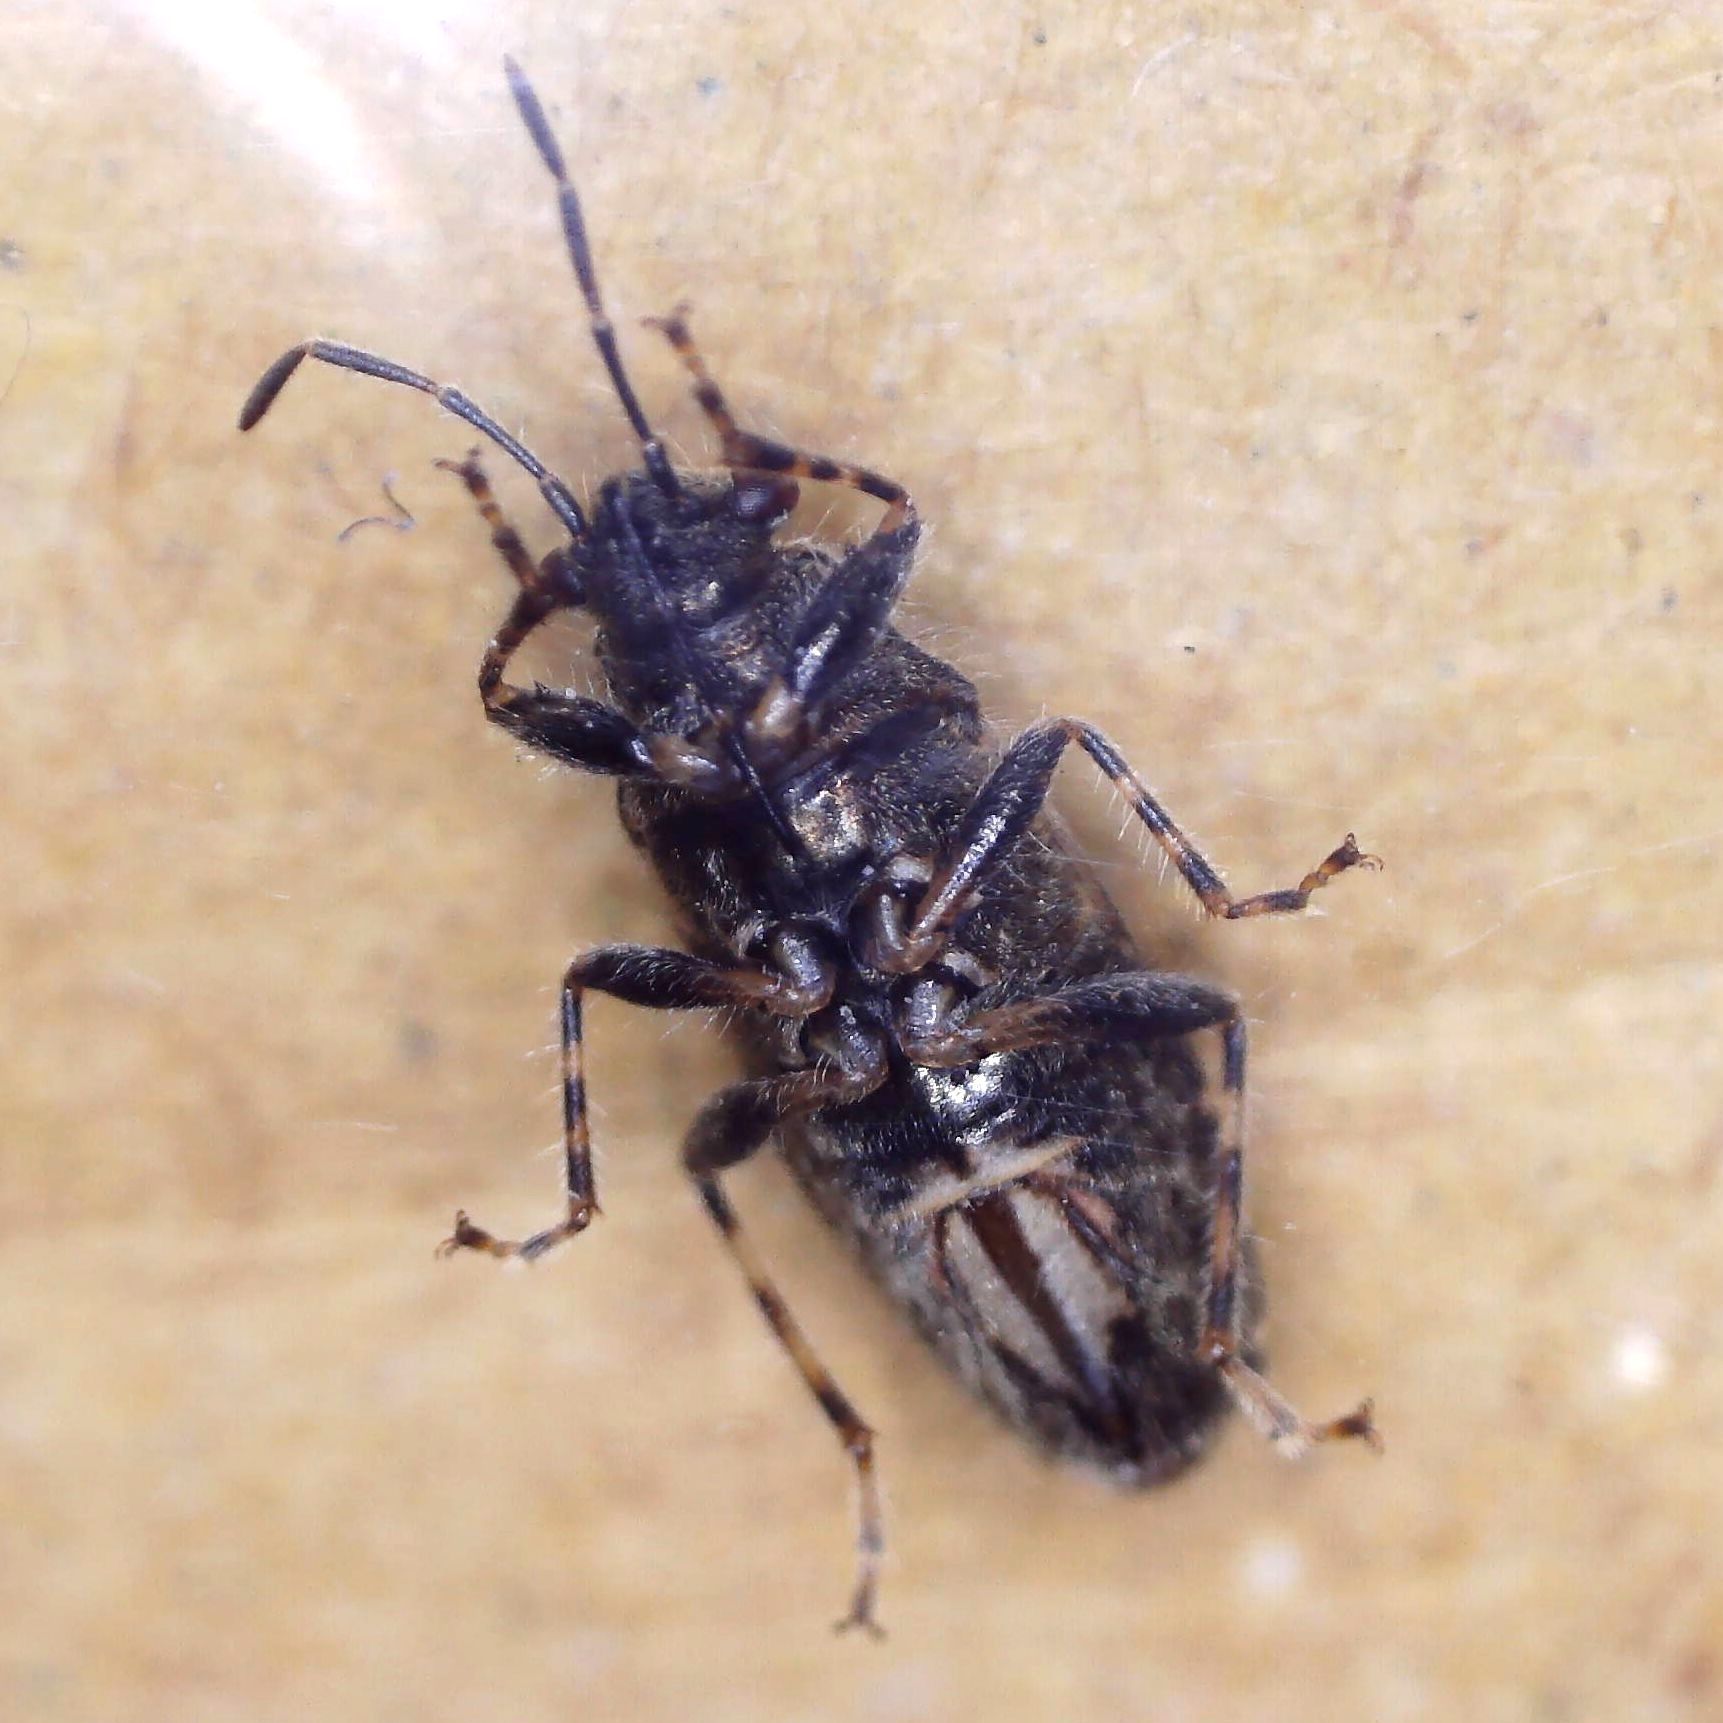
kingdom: Animalia
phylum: Arthropoda
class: Insecta
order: Hemiptera
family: Heterogastridae
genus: Heterogaster
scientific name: Heterogaster urticae
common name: Seed bug
